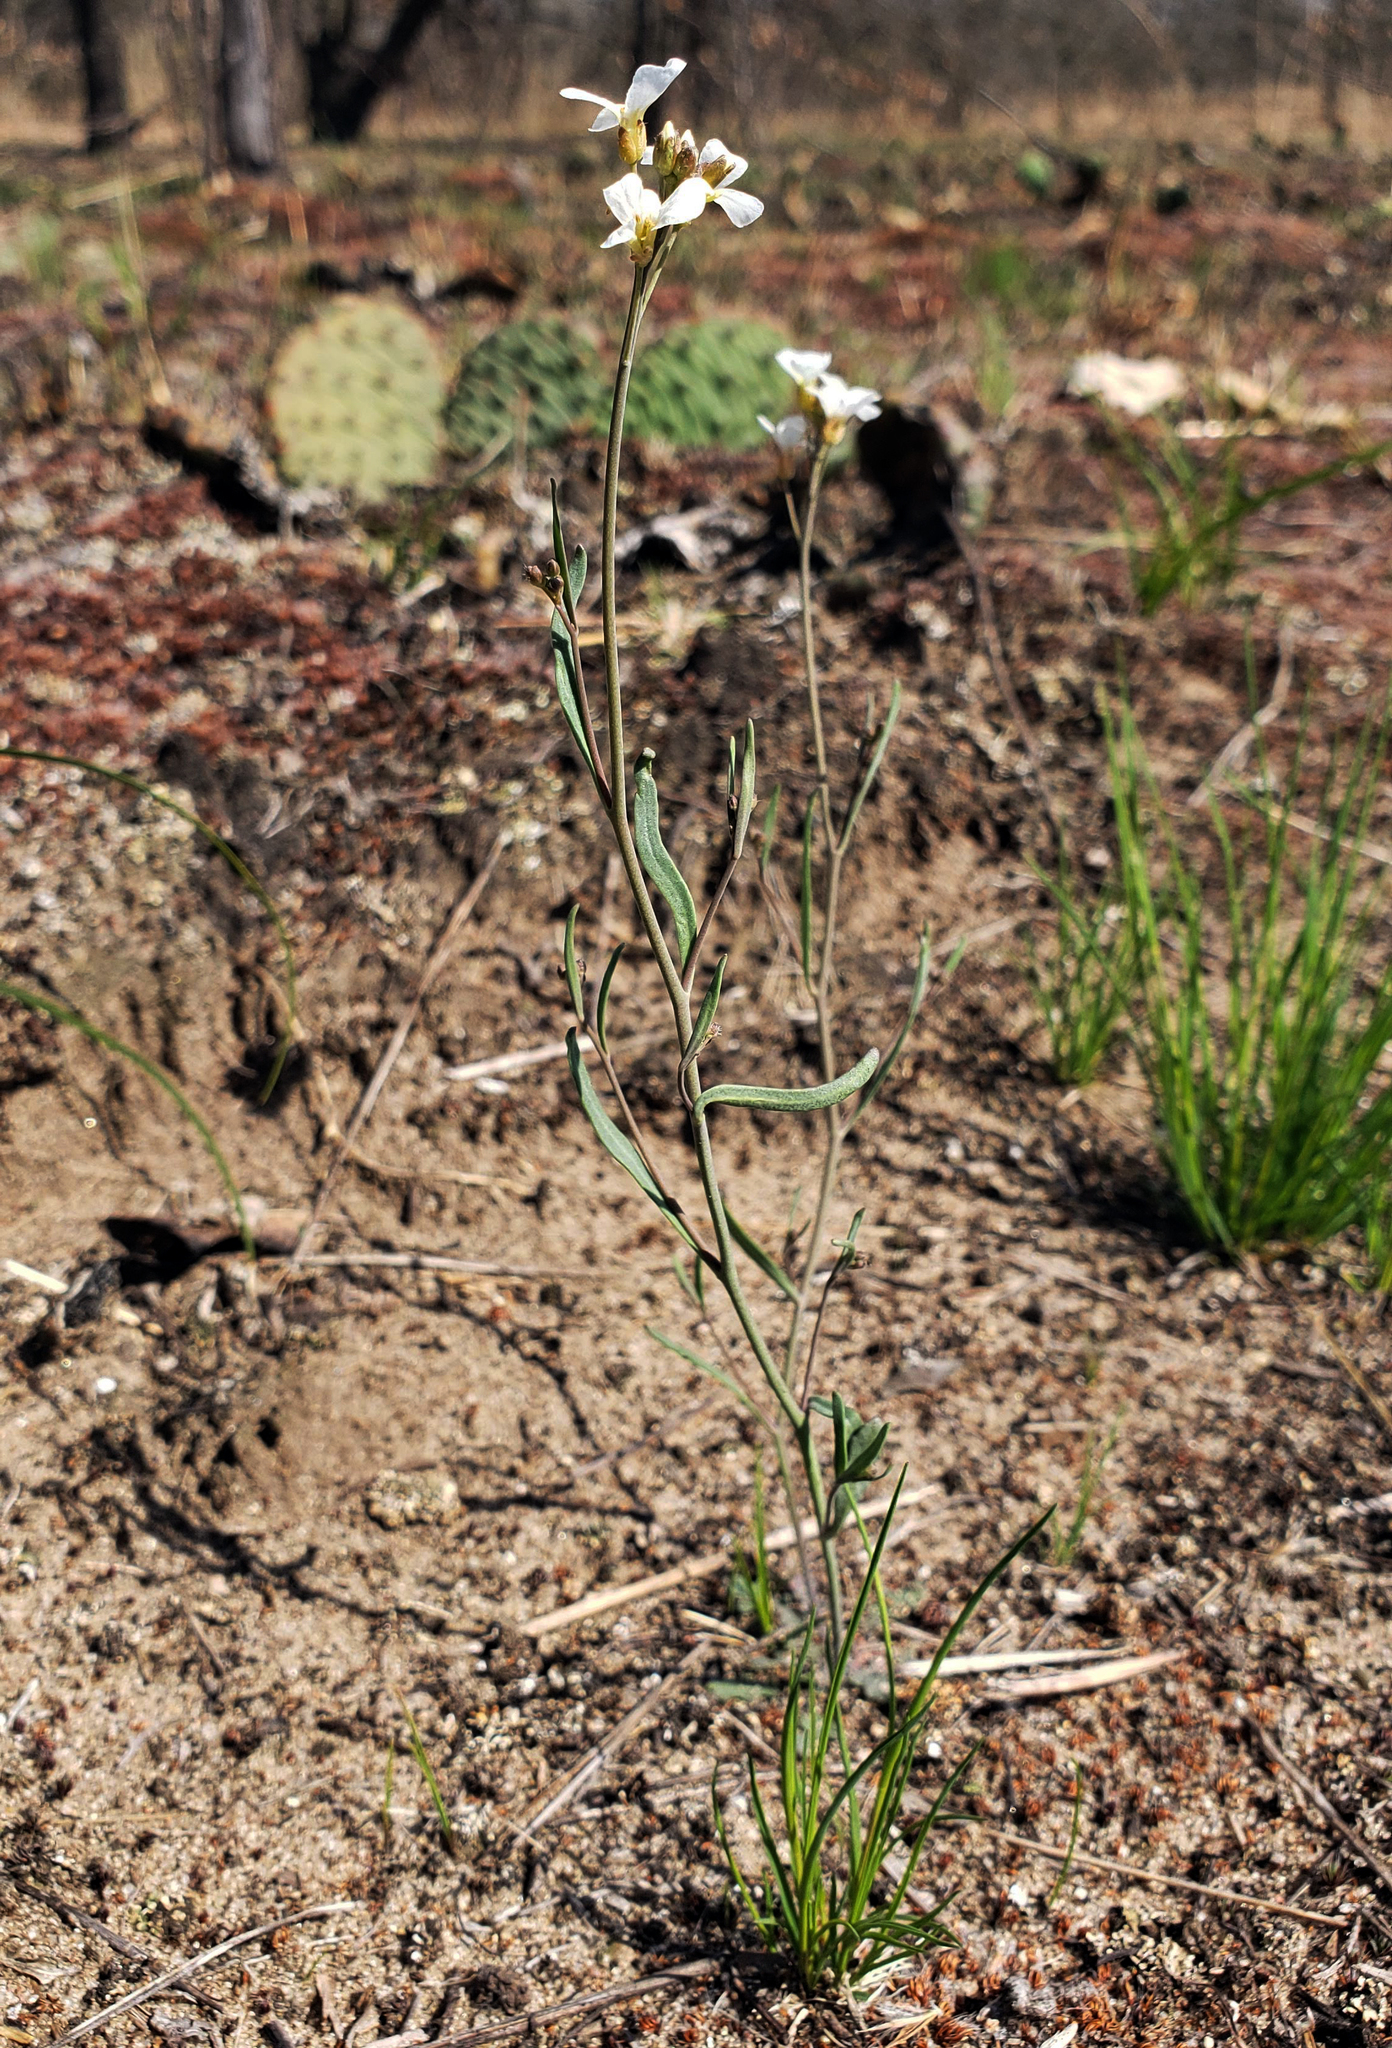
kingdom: Plantae
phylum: Tracheophyta
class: Magnoliopsida
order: Brassicales
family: Brassicaceae
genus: Arabidopsis
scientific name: Arabidopsis lyrata
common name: Lyrate rockcress
